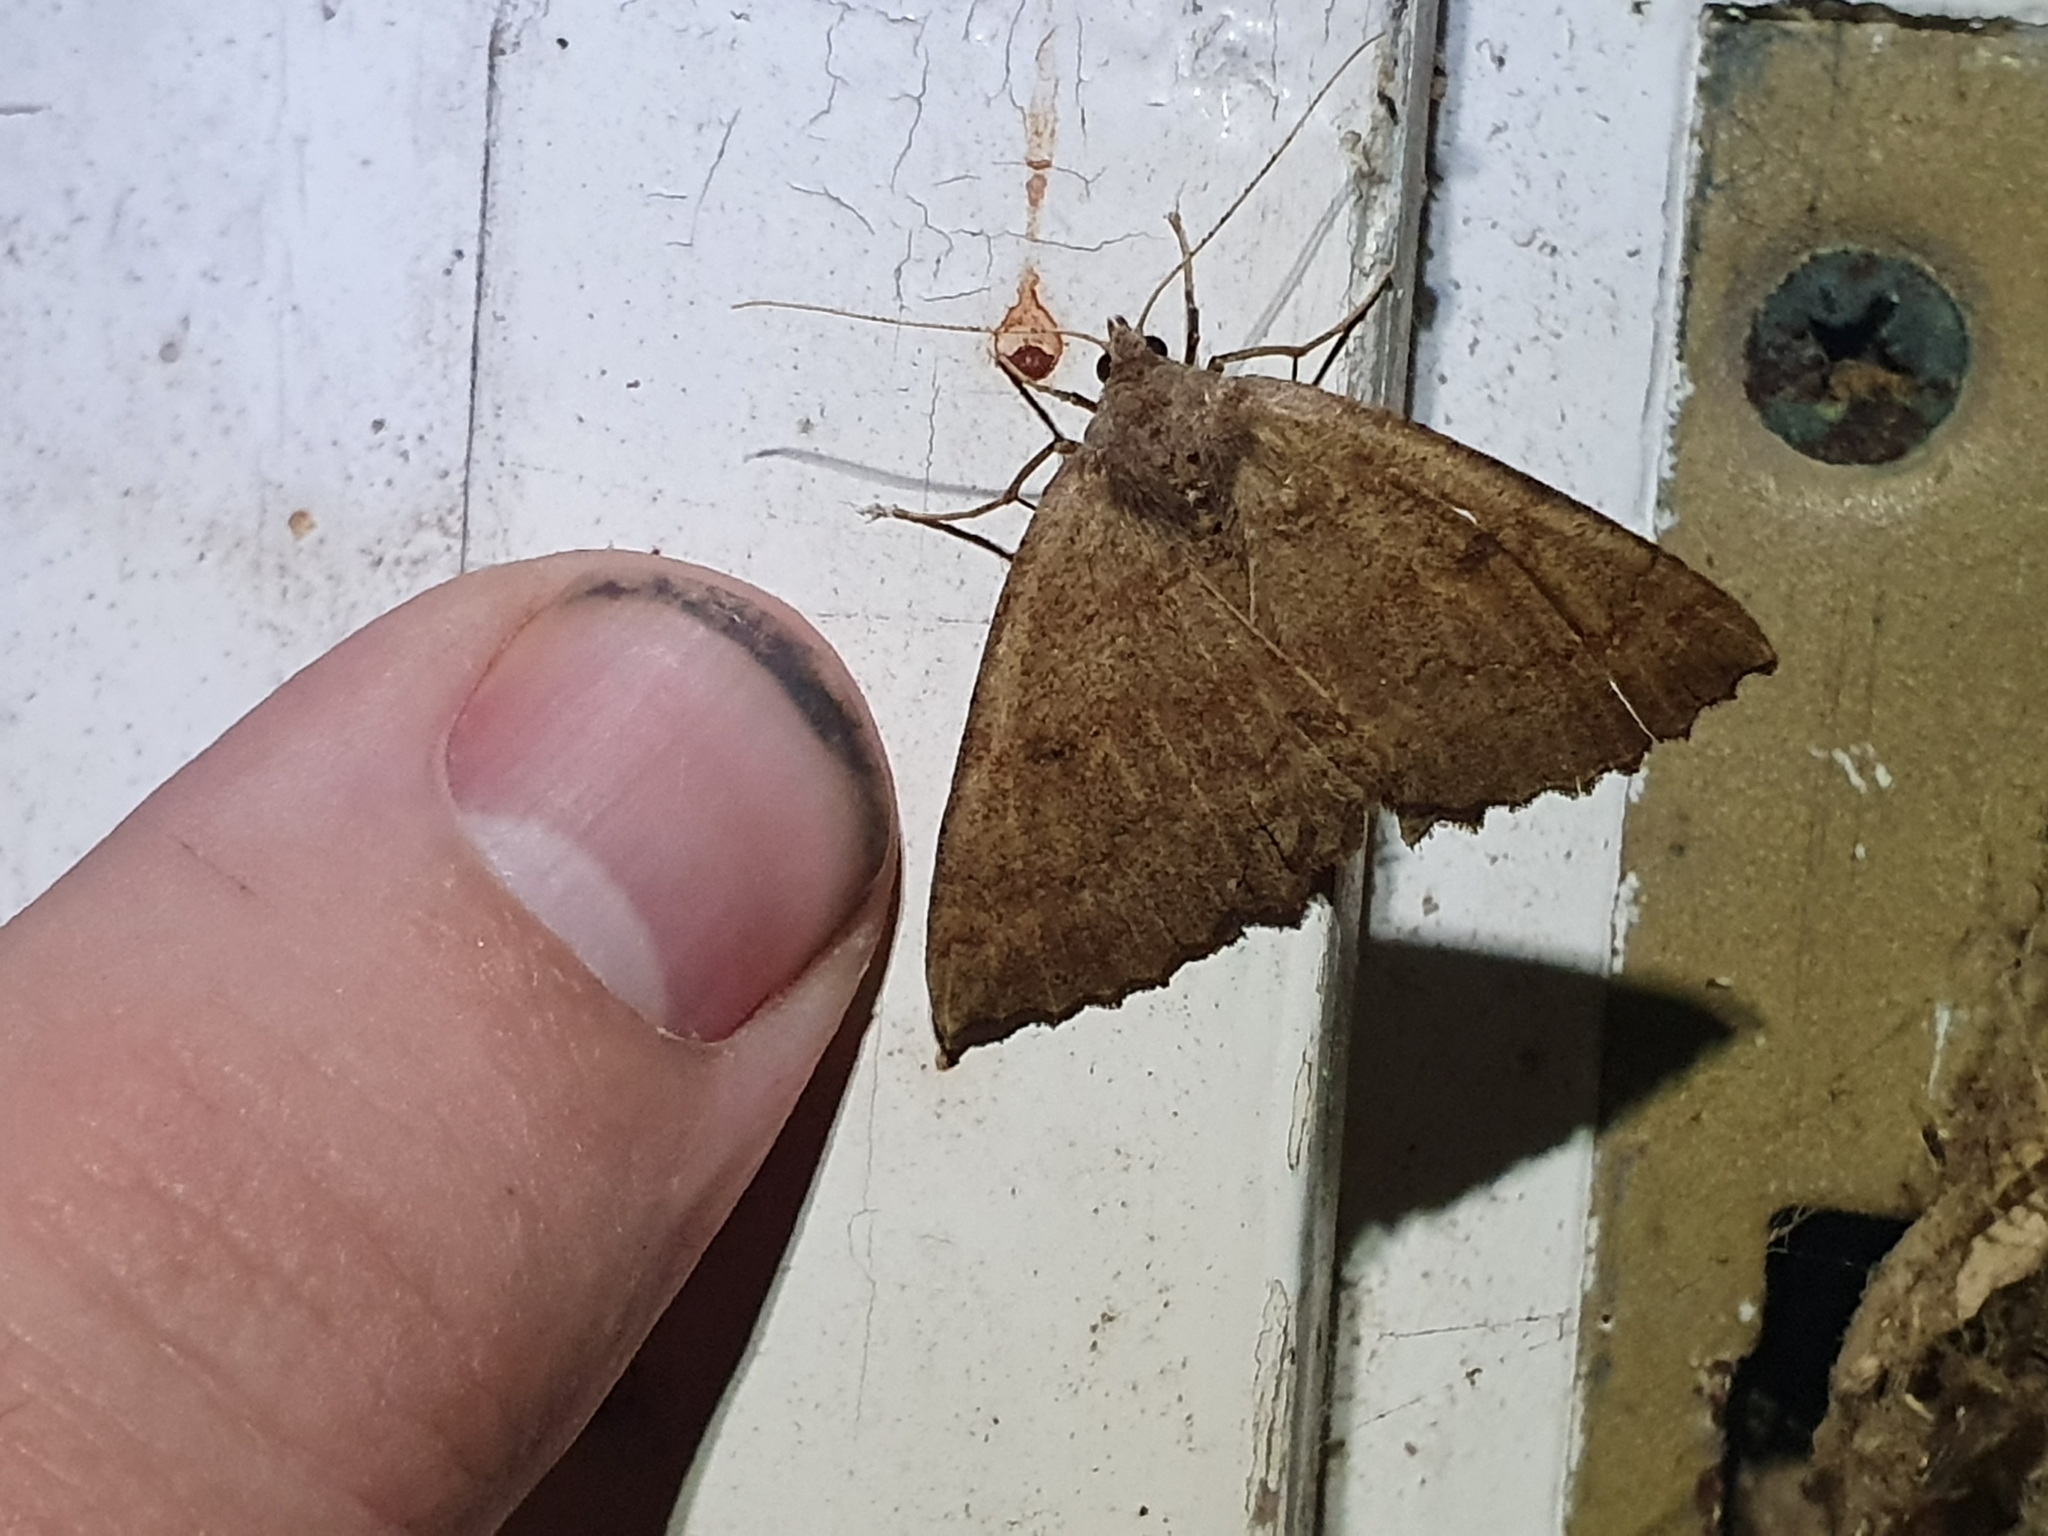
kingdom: Animalia
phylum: Arthropoda
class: Insecta
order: Lepidoptera
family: Geometridae
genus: Cleora
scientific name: Cleora scriptaria
